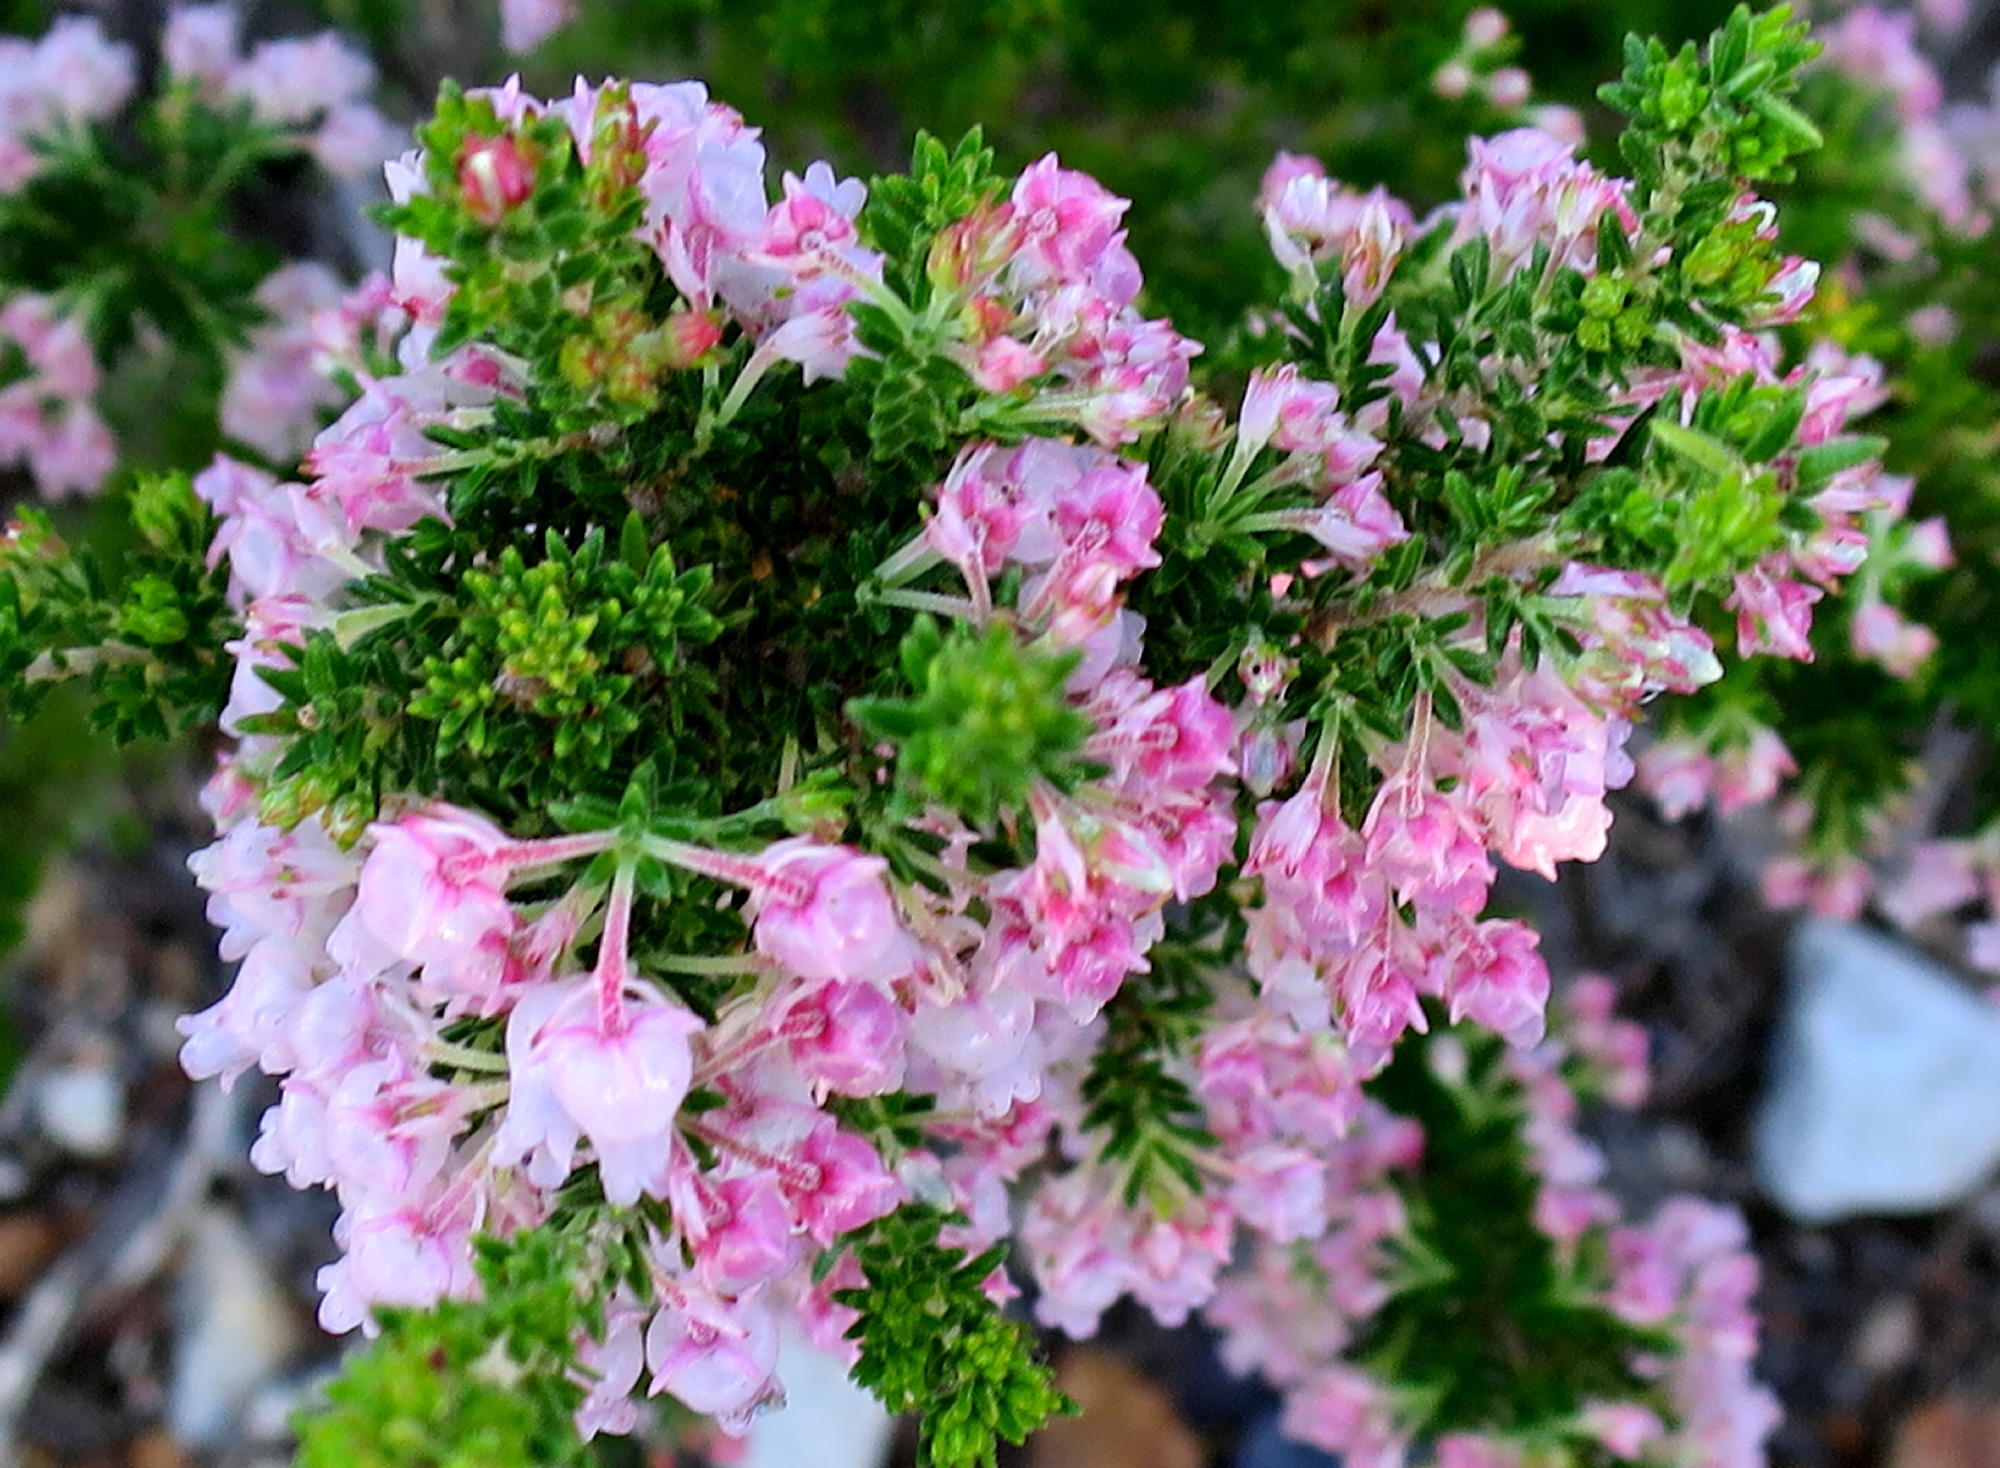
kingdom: Plantae
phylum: Tracheophyta
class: Magnoliopsida
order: Ericales
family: Ericaceae
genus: Erica
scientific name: Erica glomiflora
